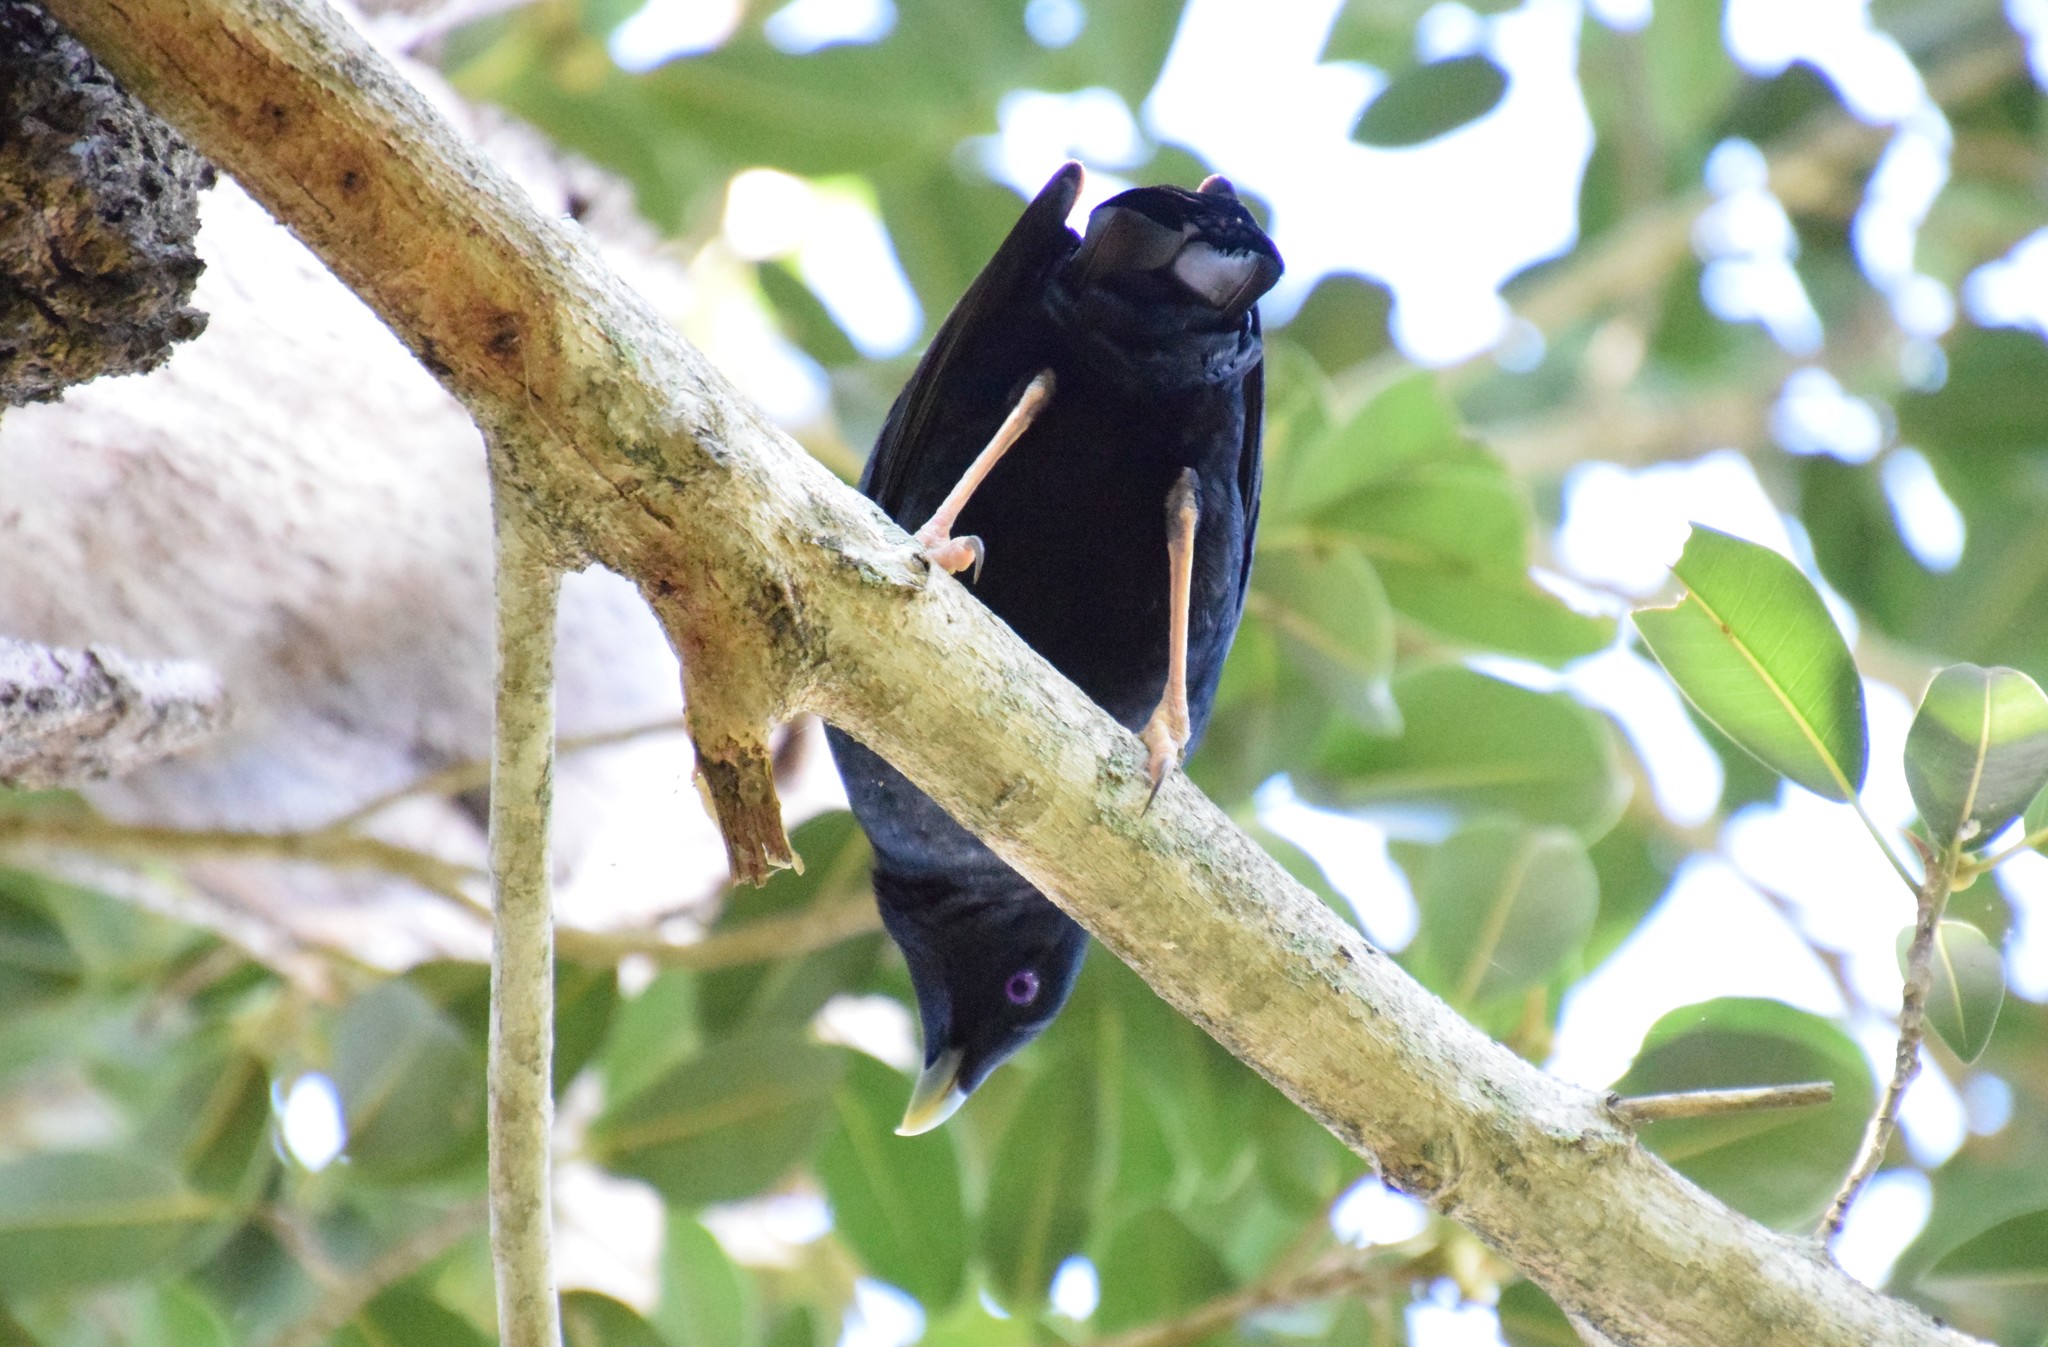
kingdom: Animalia
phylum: Chordata
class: Aves
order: Passeriformes
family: Ptilonorhynchidae
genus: Ptilonorhynchus
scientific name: Ptilonorhynchus violaceus
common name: Satin bowerbird
